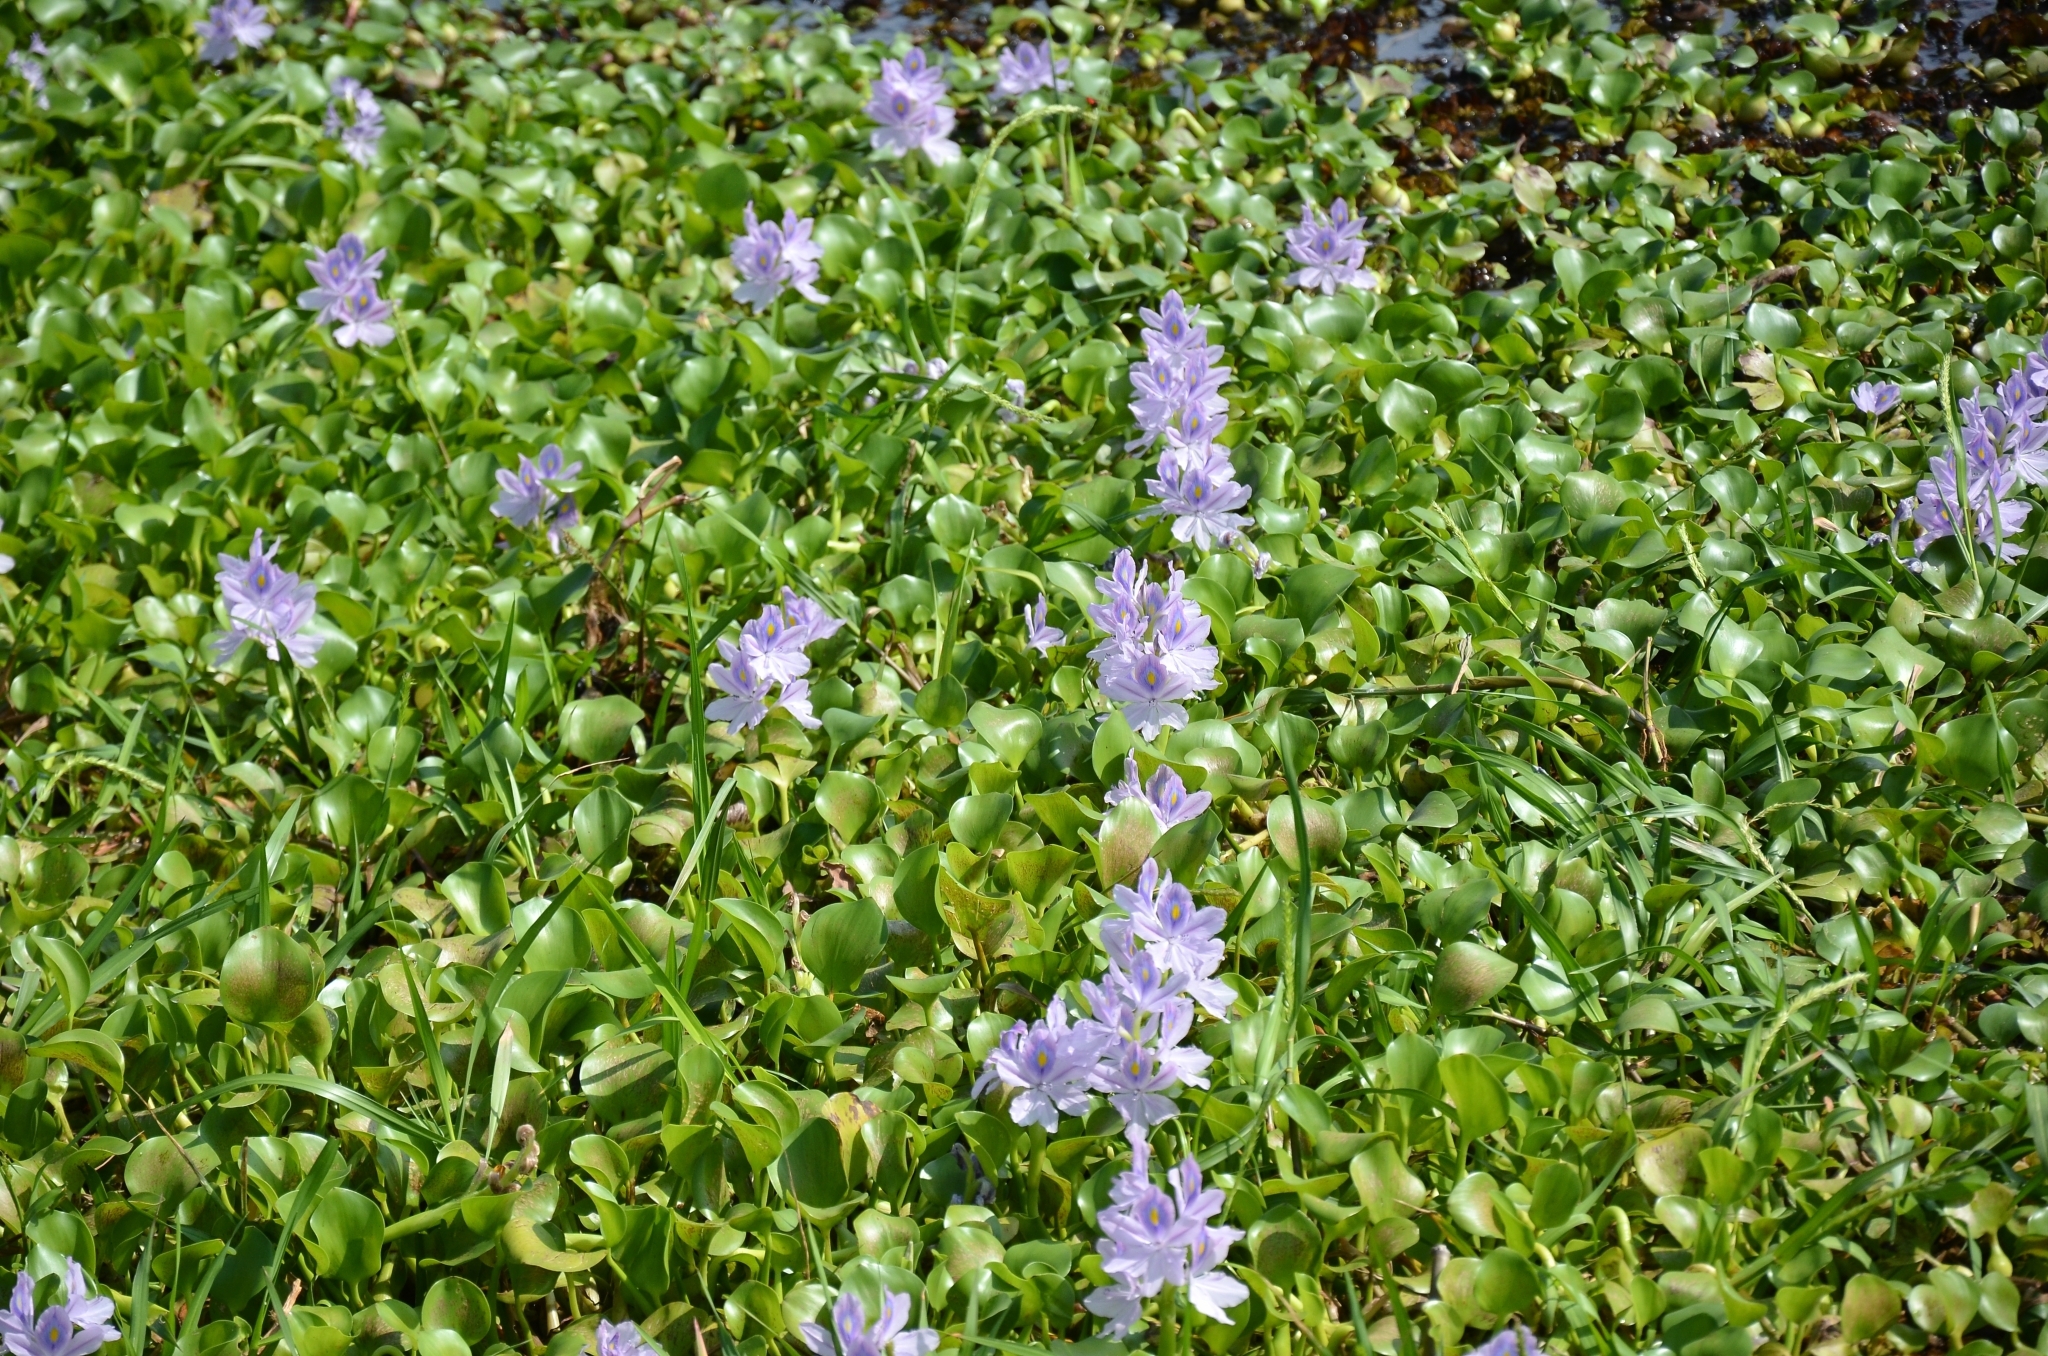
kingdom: Plantae
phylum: Tracheophyta
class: Liliopsida
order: Commelinales
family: Pontederiaceae
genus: Pontederia
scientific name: Pontederia crassipes
